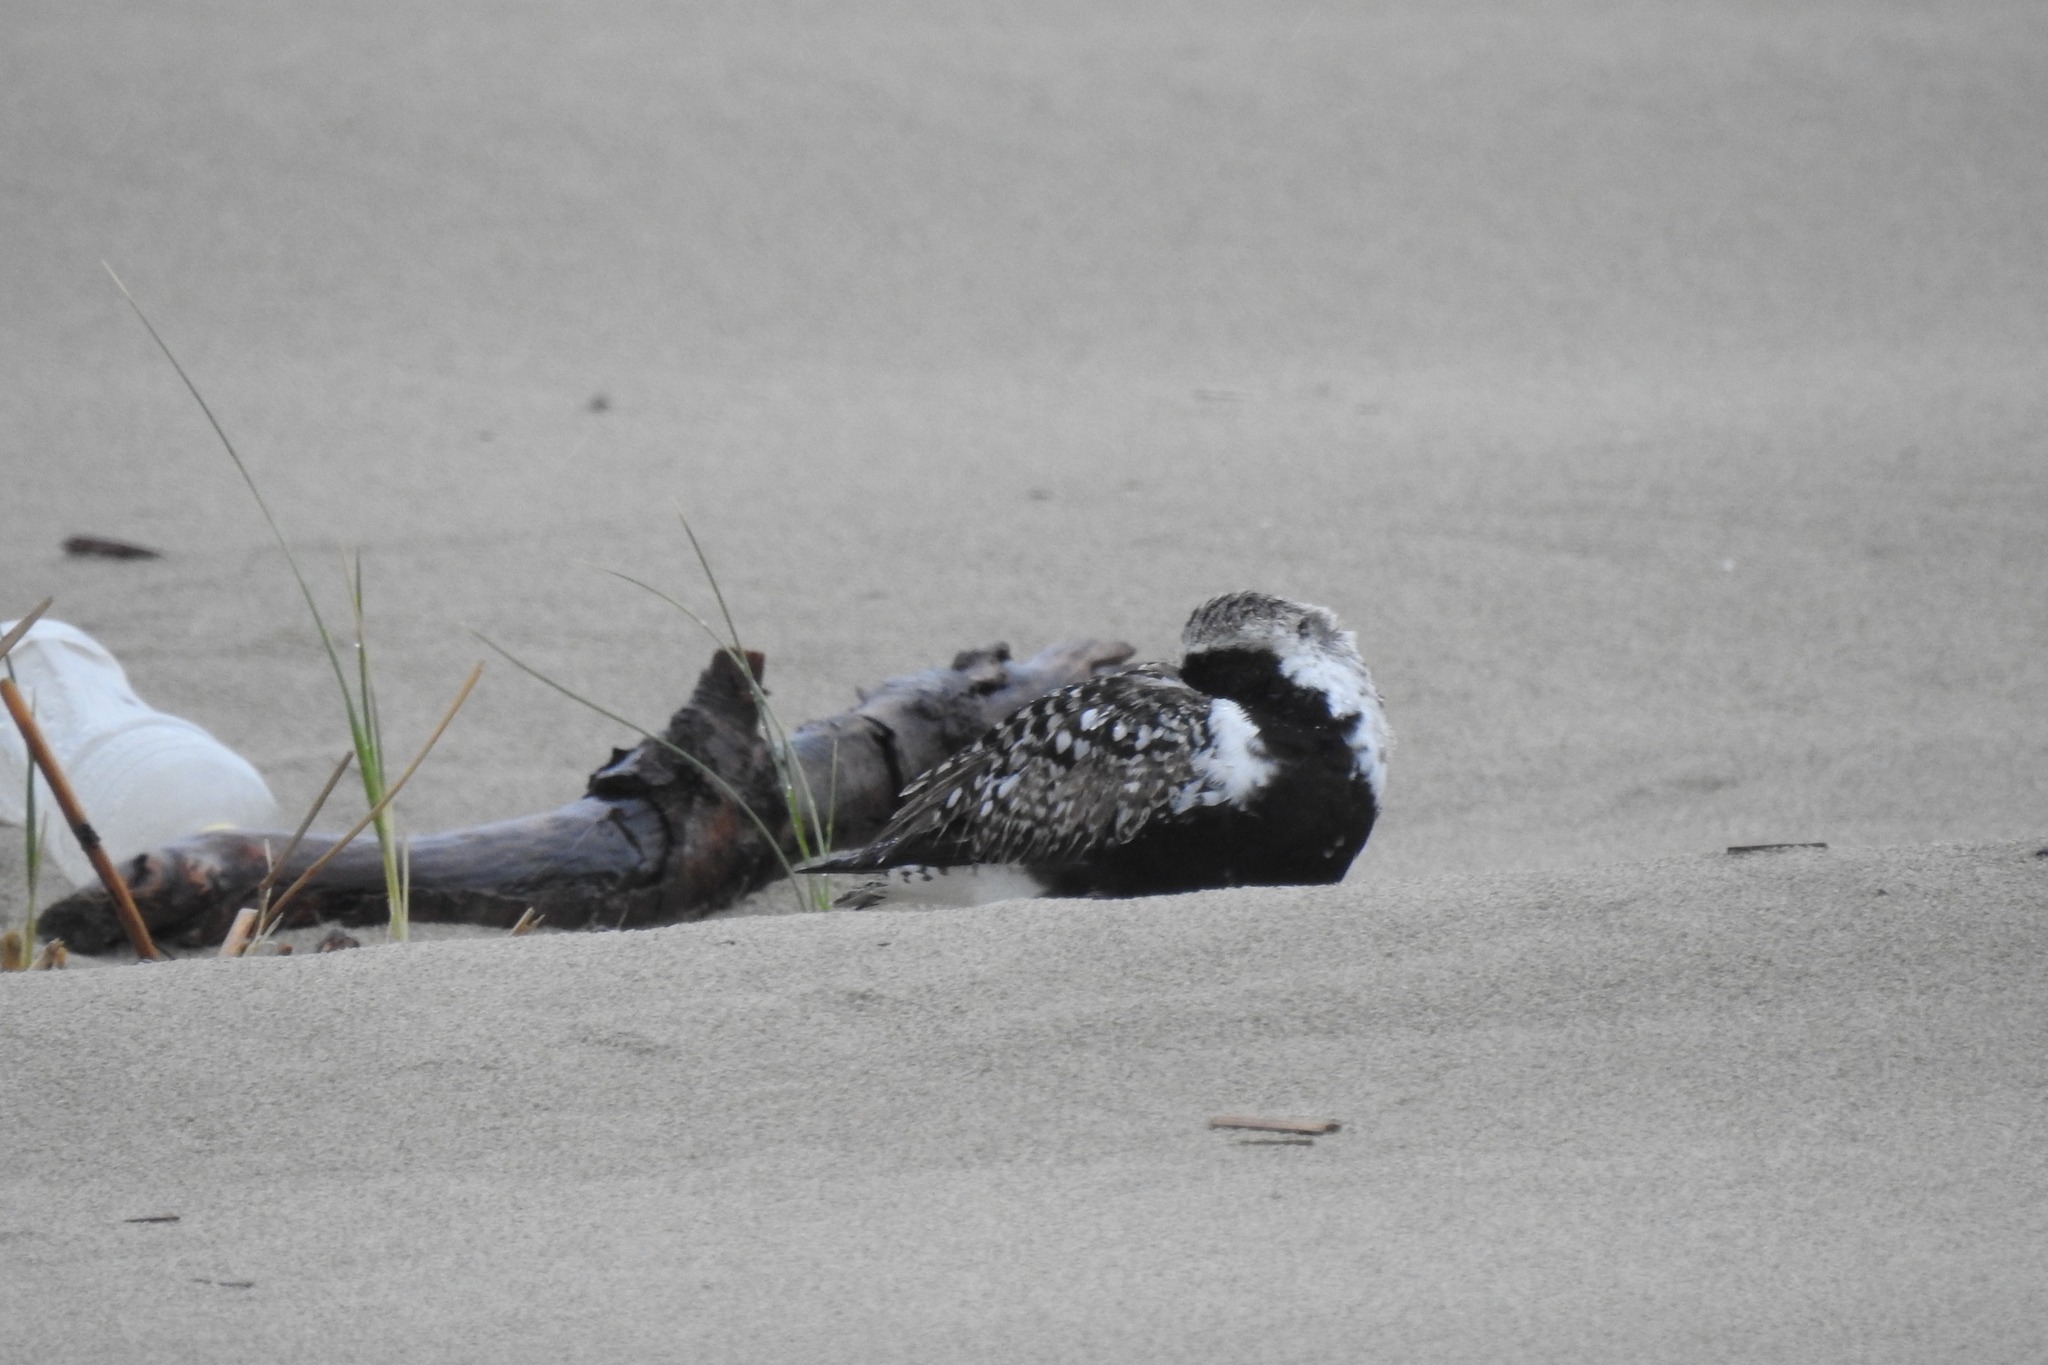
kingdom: Animalia
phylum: Chordata
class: Aves
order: Charadriiformes
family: Charadriidae
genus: Pluvialis
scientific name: Pluvialis squatarola
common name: Grey plover
